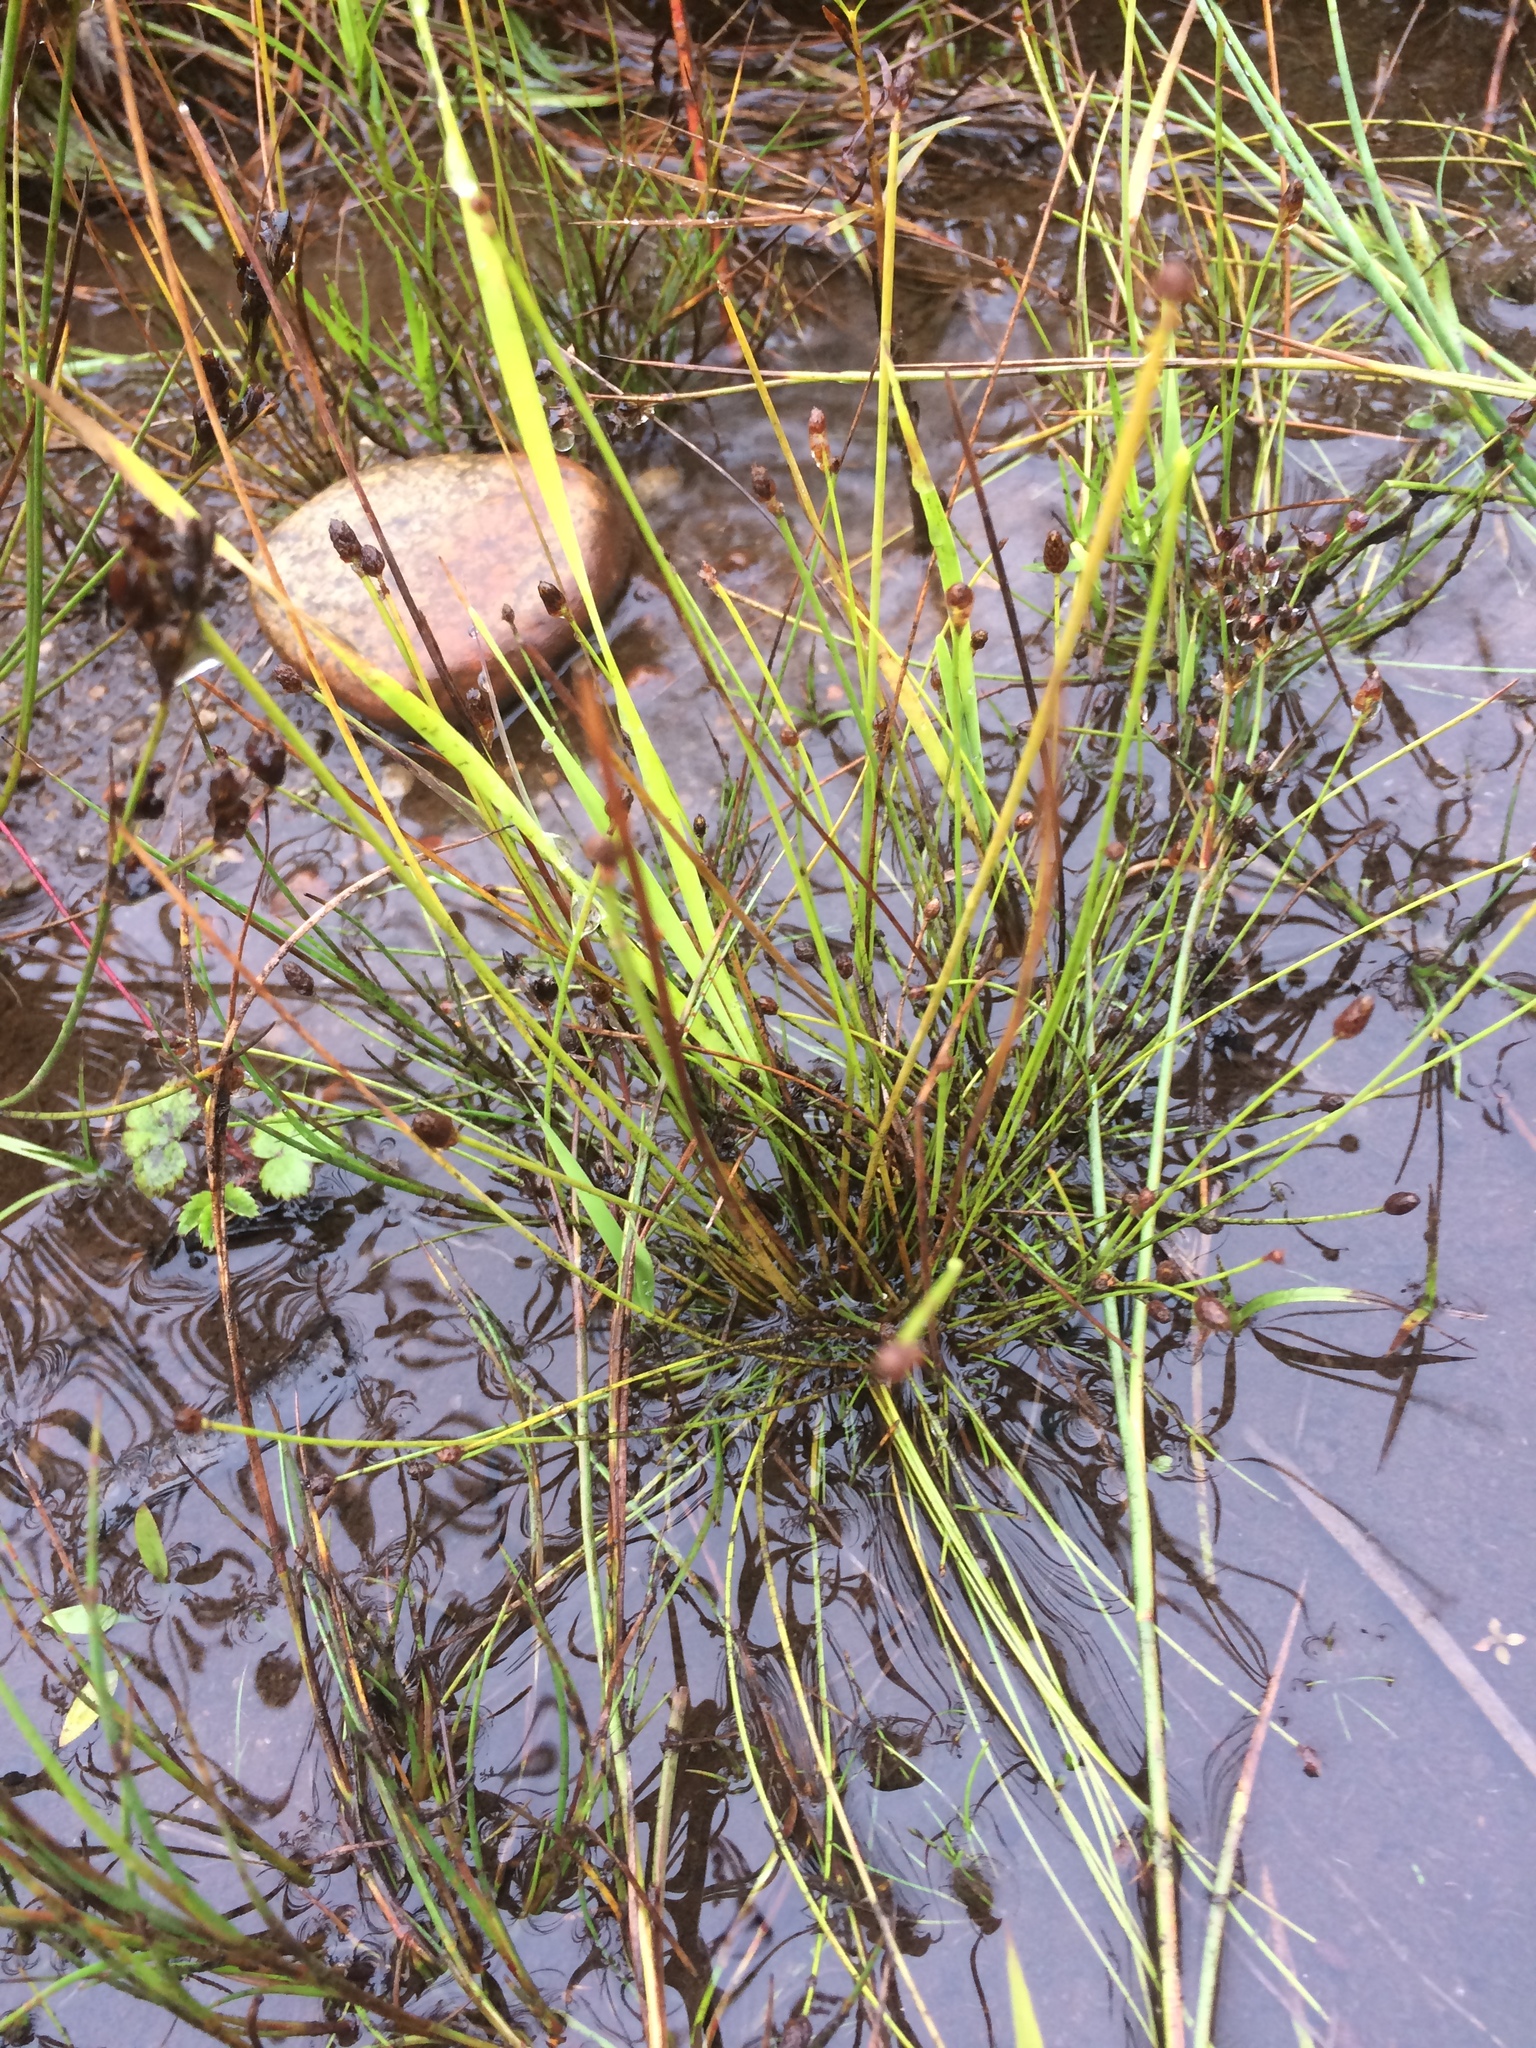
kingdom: Plantae
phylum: Tracheophyta
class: Liliopsida
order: Poales
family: Cyperaceae
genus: Eleocharis
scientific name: Eleocharis obtusa
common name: Blunt spikerush
